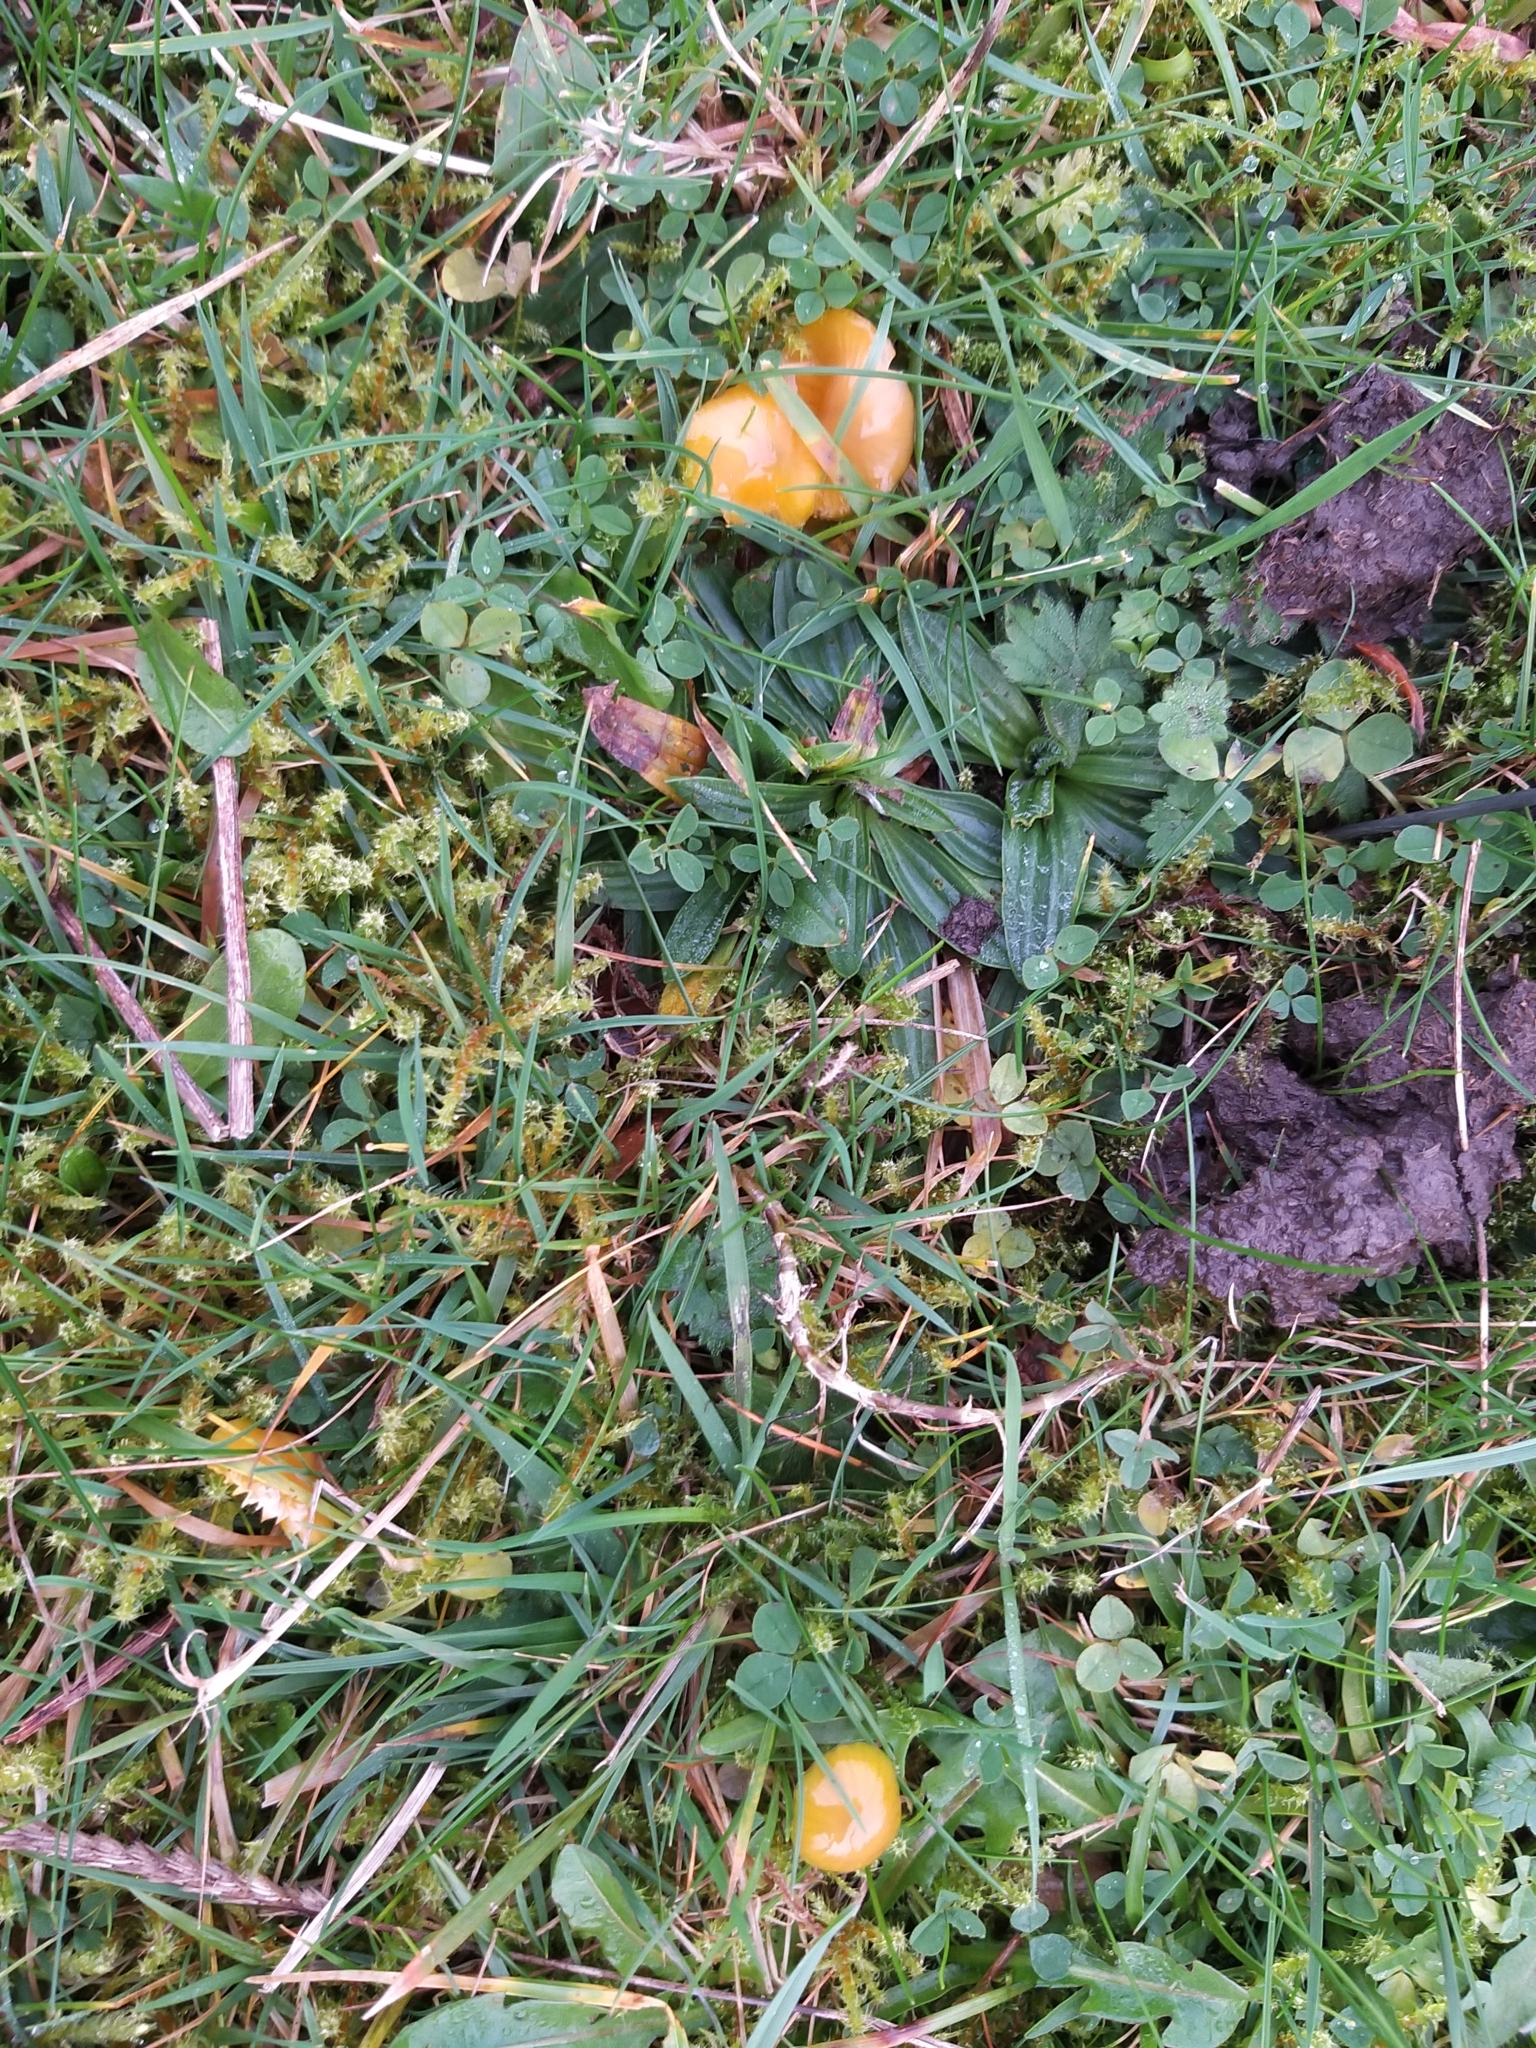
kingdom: Fungi
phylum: Basidiomycota
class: Agaricomycetes
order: Agaricales
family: Hygrophoraceae
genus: Gliophorus
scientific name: Gliophorus psittacinus
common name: Parrot wax-cap
